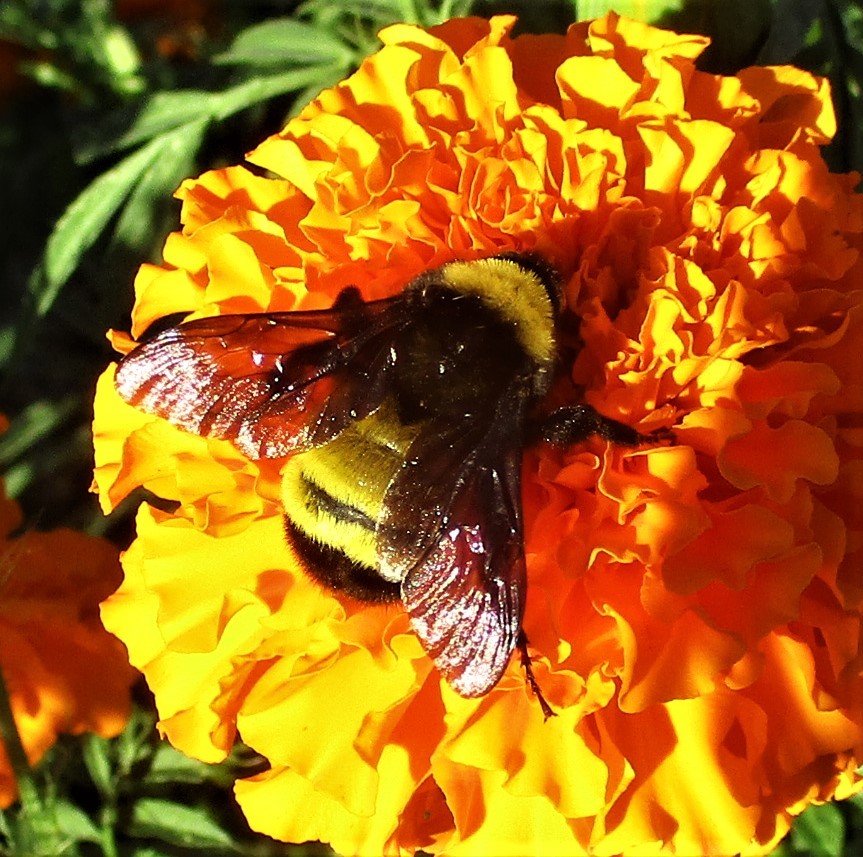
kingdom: Animalia
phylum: Arthropoda
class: Insecta
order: Hymenoptera
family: Apidae
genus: Bombus
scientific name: Bombus pensylvanicus
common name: Bumble bee
